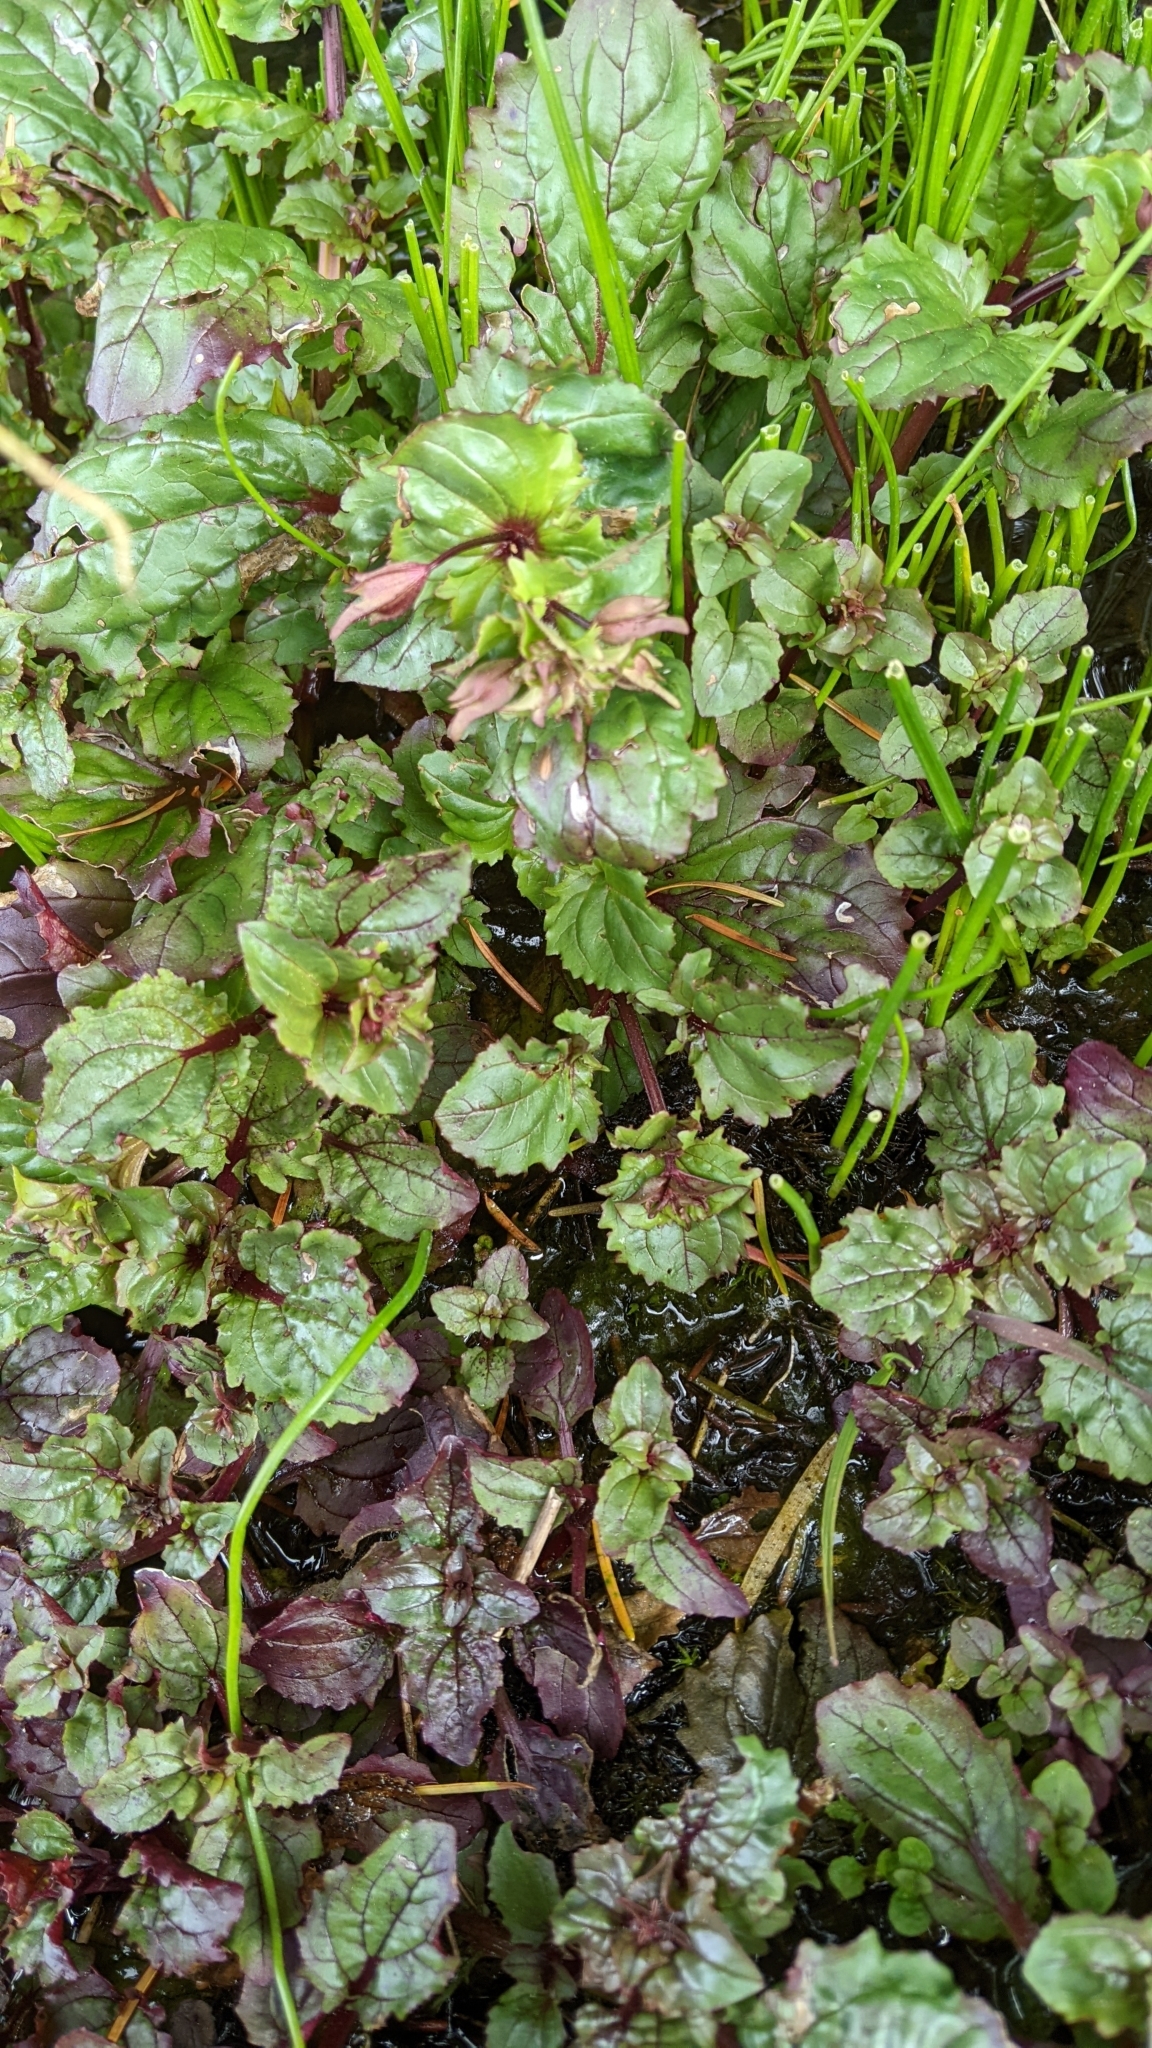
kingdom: Plantae
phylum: Tracheophyta
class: Magnoliopsida
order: Lamiales
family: Phrymaceae
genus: Erythranthe
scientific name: Erythranthe guttata
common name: Monkeyflower
